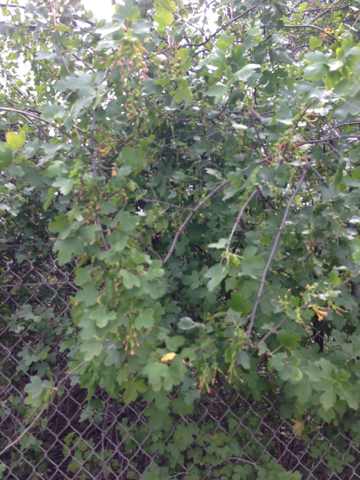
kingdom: Plantae
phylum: Tracheophyta
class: Magnoliopsida
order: Saxifragales
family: Grossulariaceae
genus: Ribes
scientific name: Ribes aureum
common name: Golden currant
